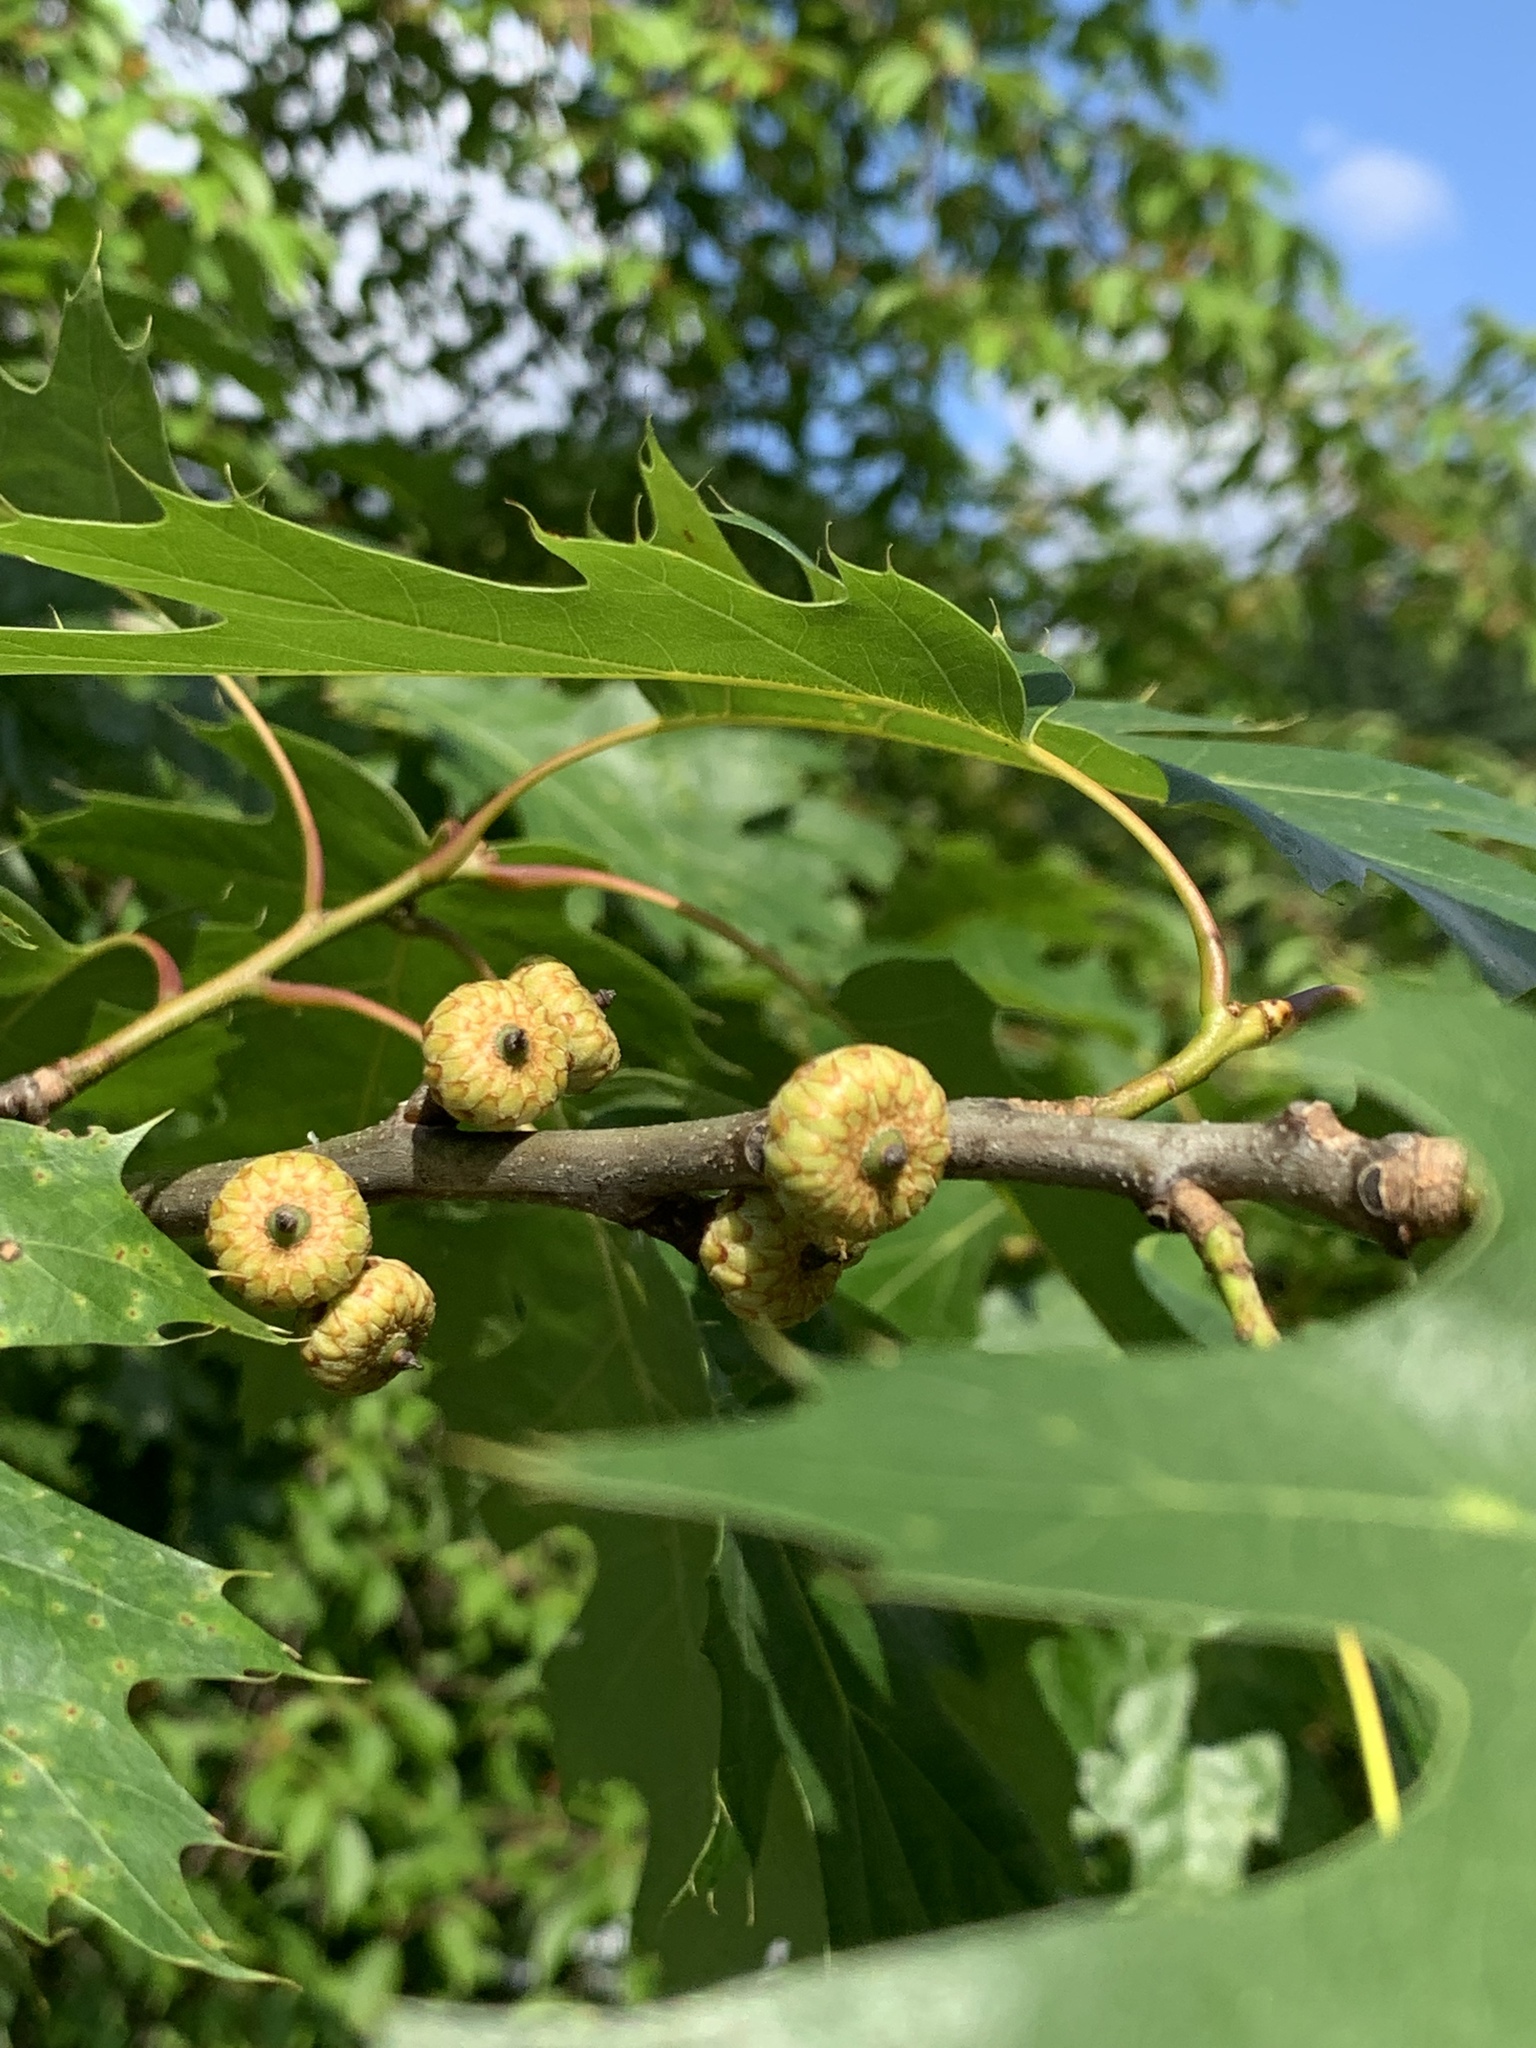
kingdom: Plantae
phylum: Tracheophyta
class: Magnoliopsida
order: Fagales
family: Fagaceae
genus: Quercus
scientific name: Quercus rubra
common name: Red oak
